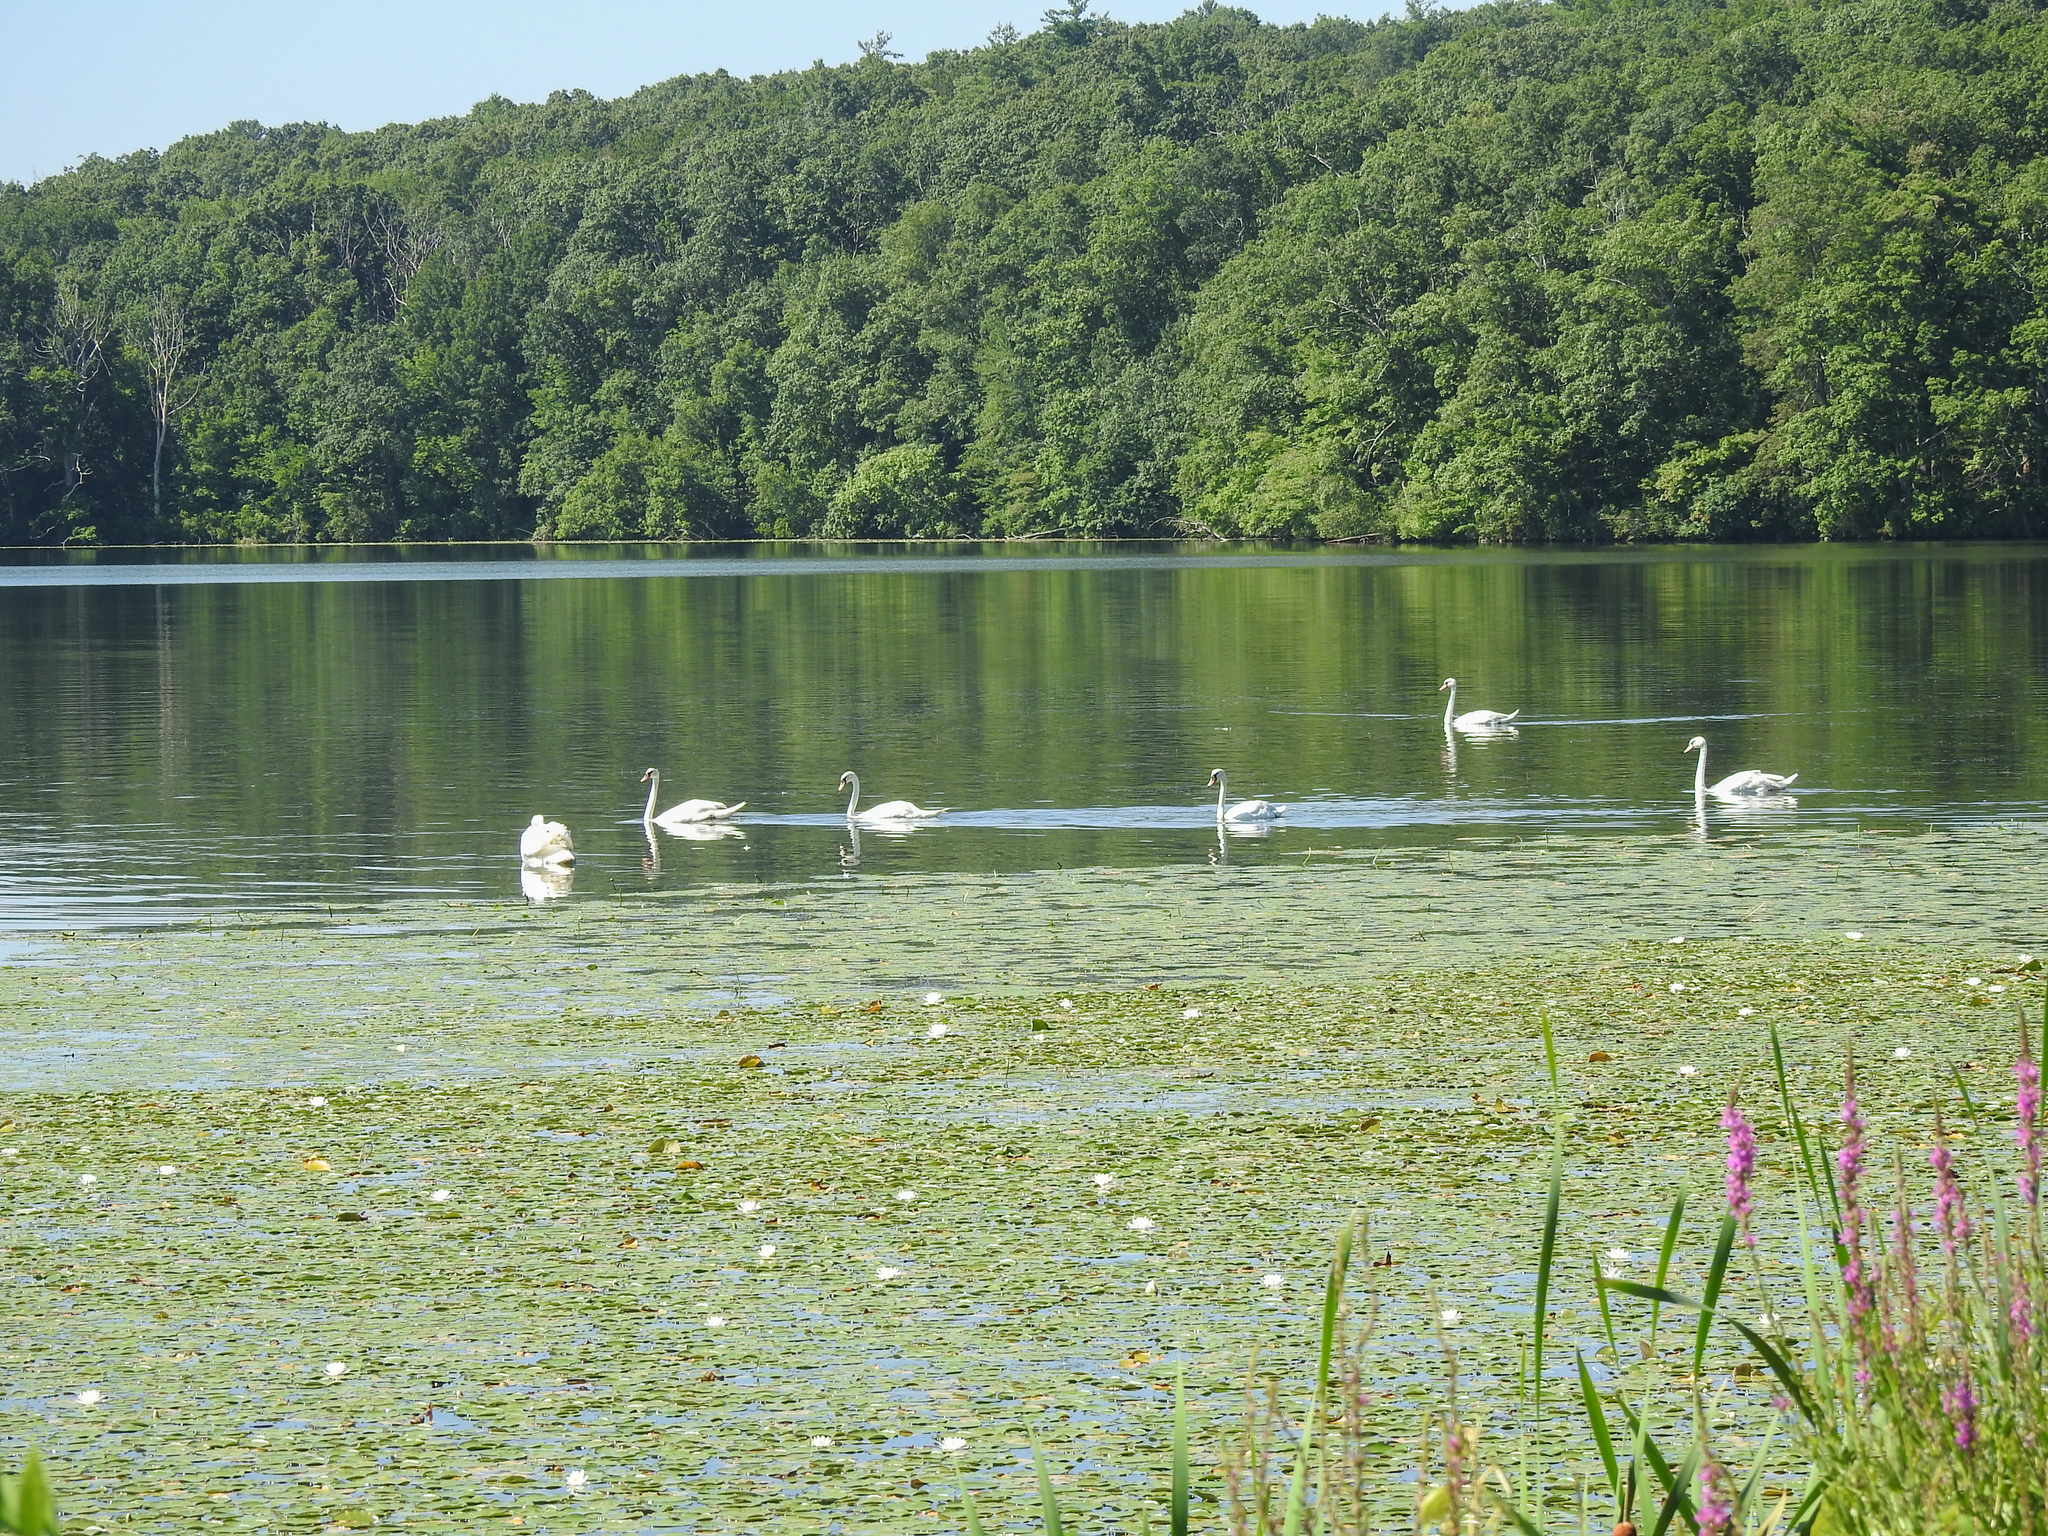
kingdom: Animalia
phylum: Chordata
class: Aves
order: Anseriformes
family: Anatidae
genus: Cygnus
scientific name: Cygnus olor
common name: Mute swan
